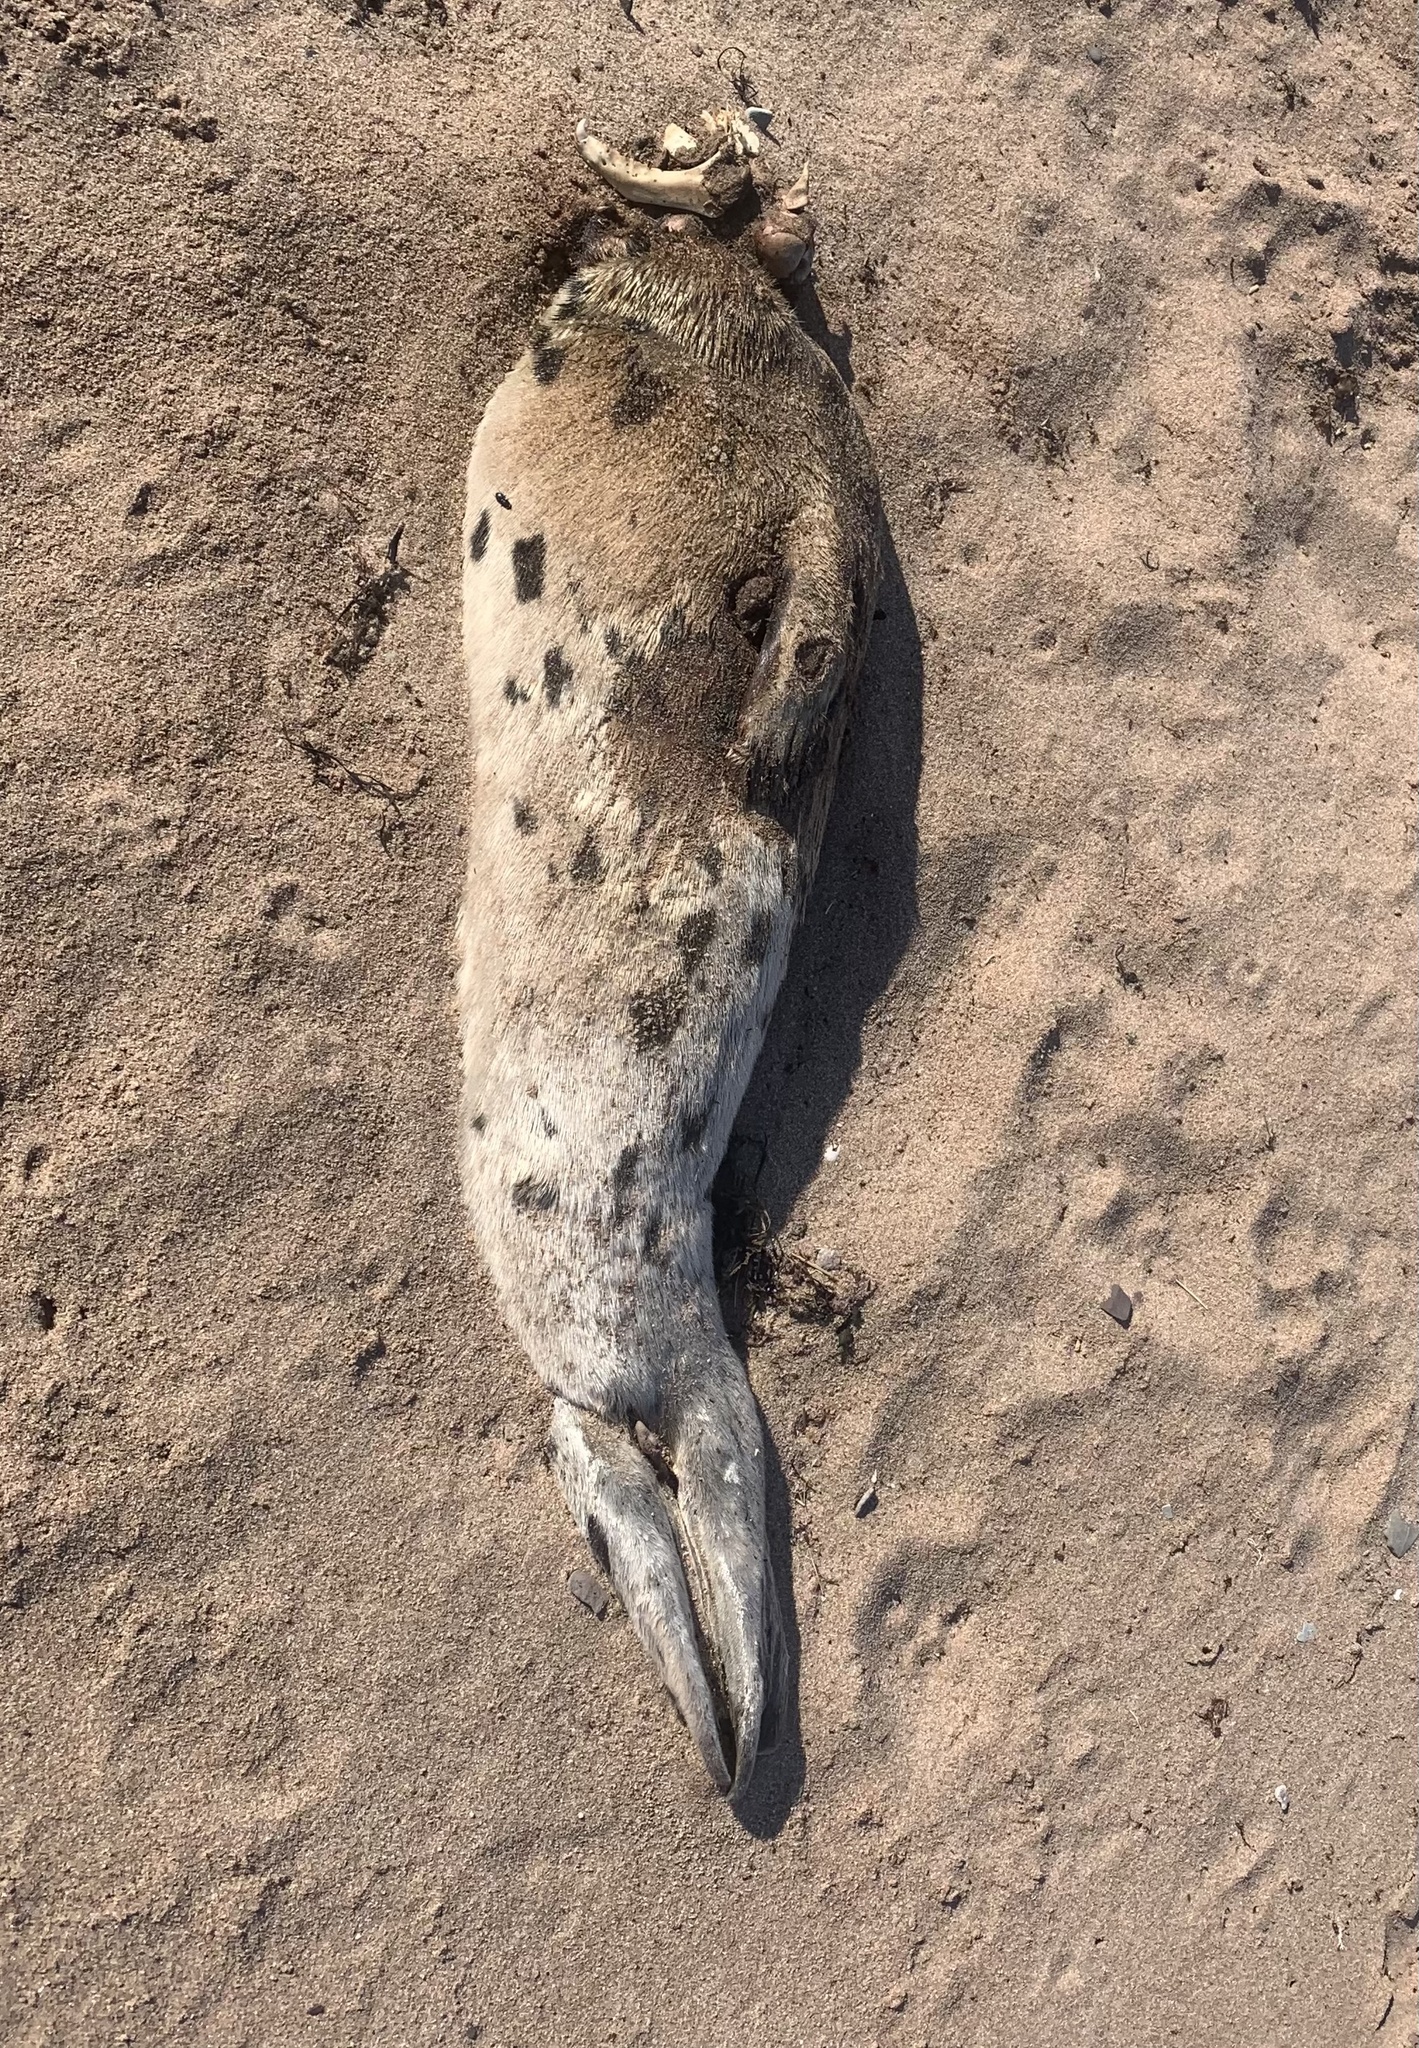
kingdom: Animalia
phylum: Chordata
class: Mammalia
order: Carnivora
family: Phocidae
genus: Pagophilus
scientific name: Pagophilus groenlandicus
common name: Harp seal
